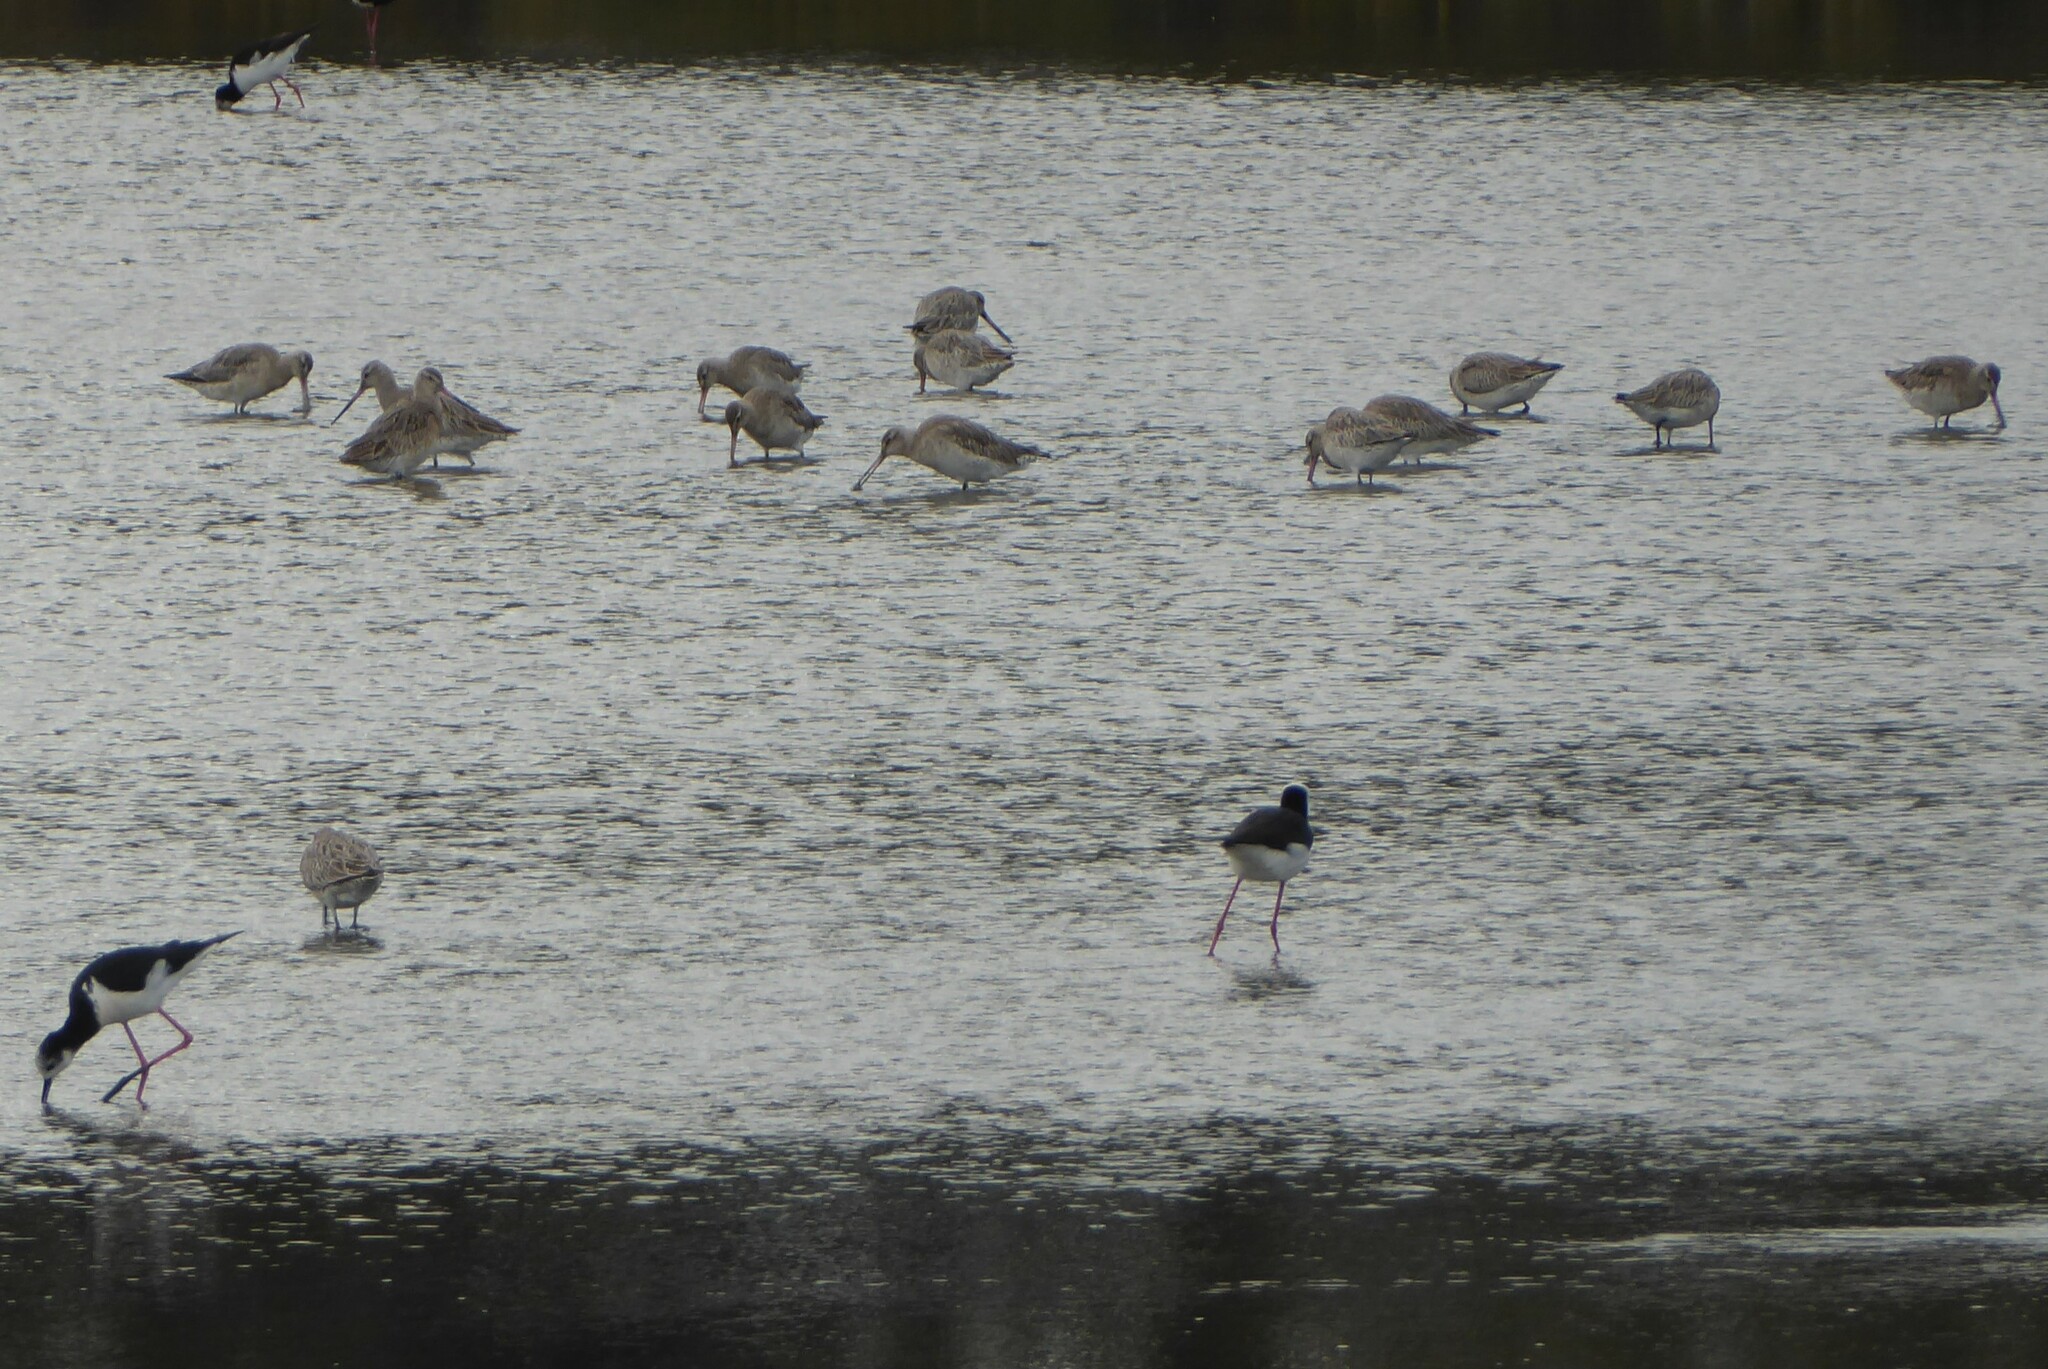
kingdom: Animalia
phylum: Chordata
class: Aves
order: Charadriiformes
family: Scolopacidae
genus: Limosa
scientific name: Limosa lapponica
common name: Bar-tailed godwit
